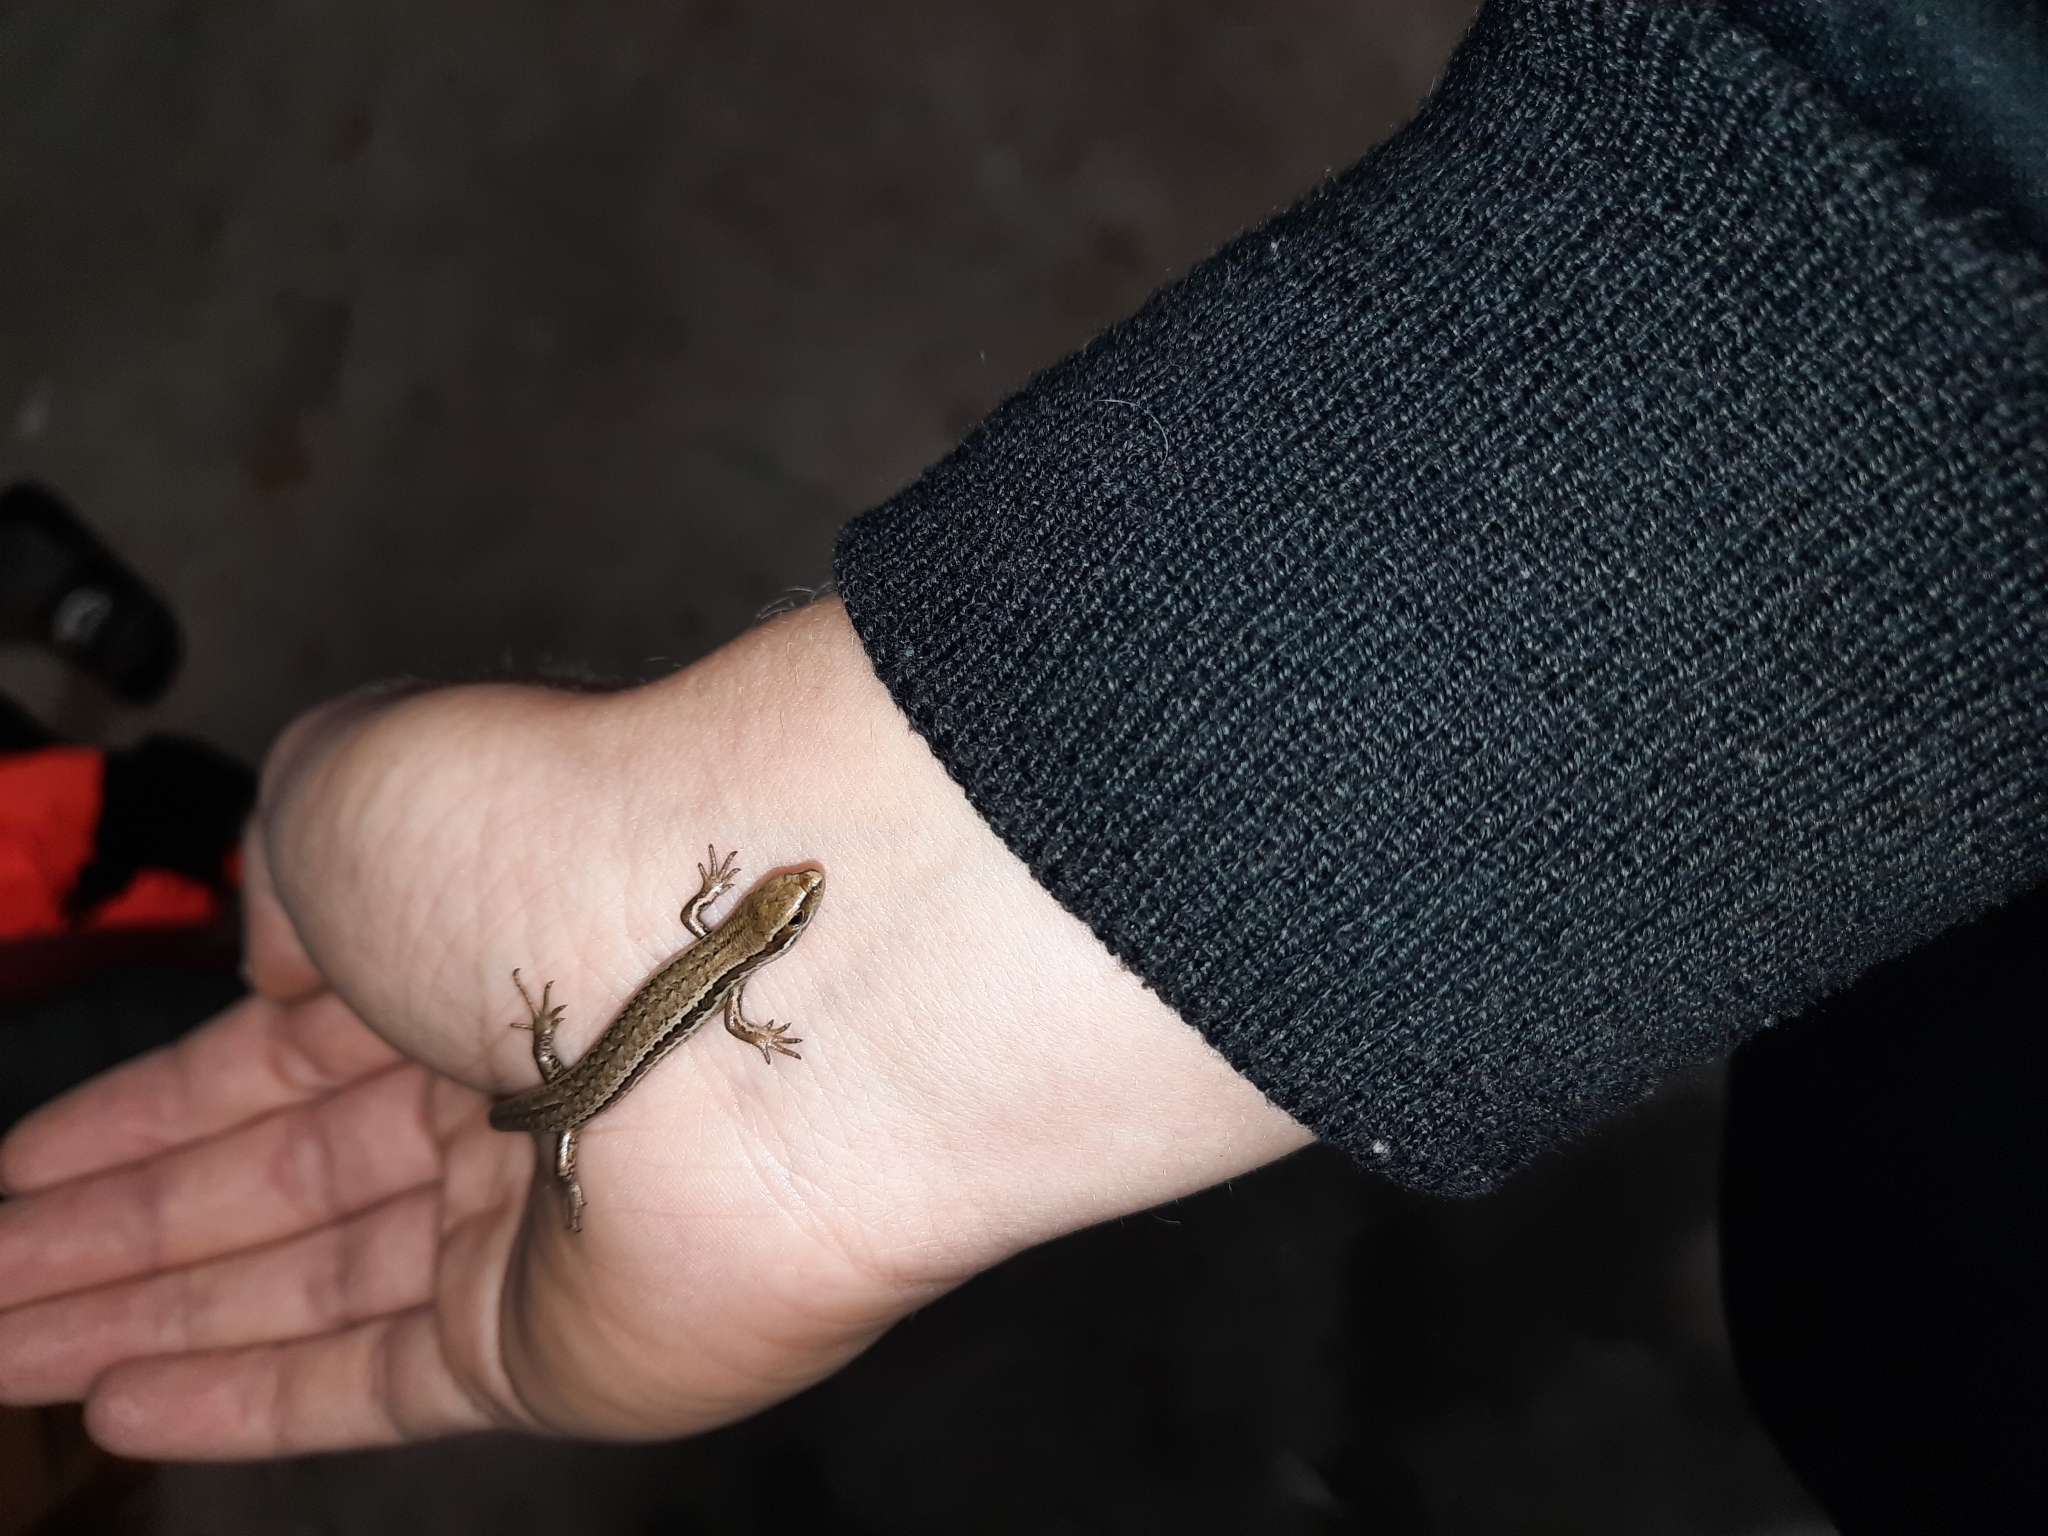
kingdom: Animalia
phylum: Chordata
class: Squamata
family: Scincidae
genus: Oligosoma
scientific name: Oligosoma polychroma
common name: Common new zealand skink
